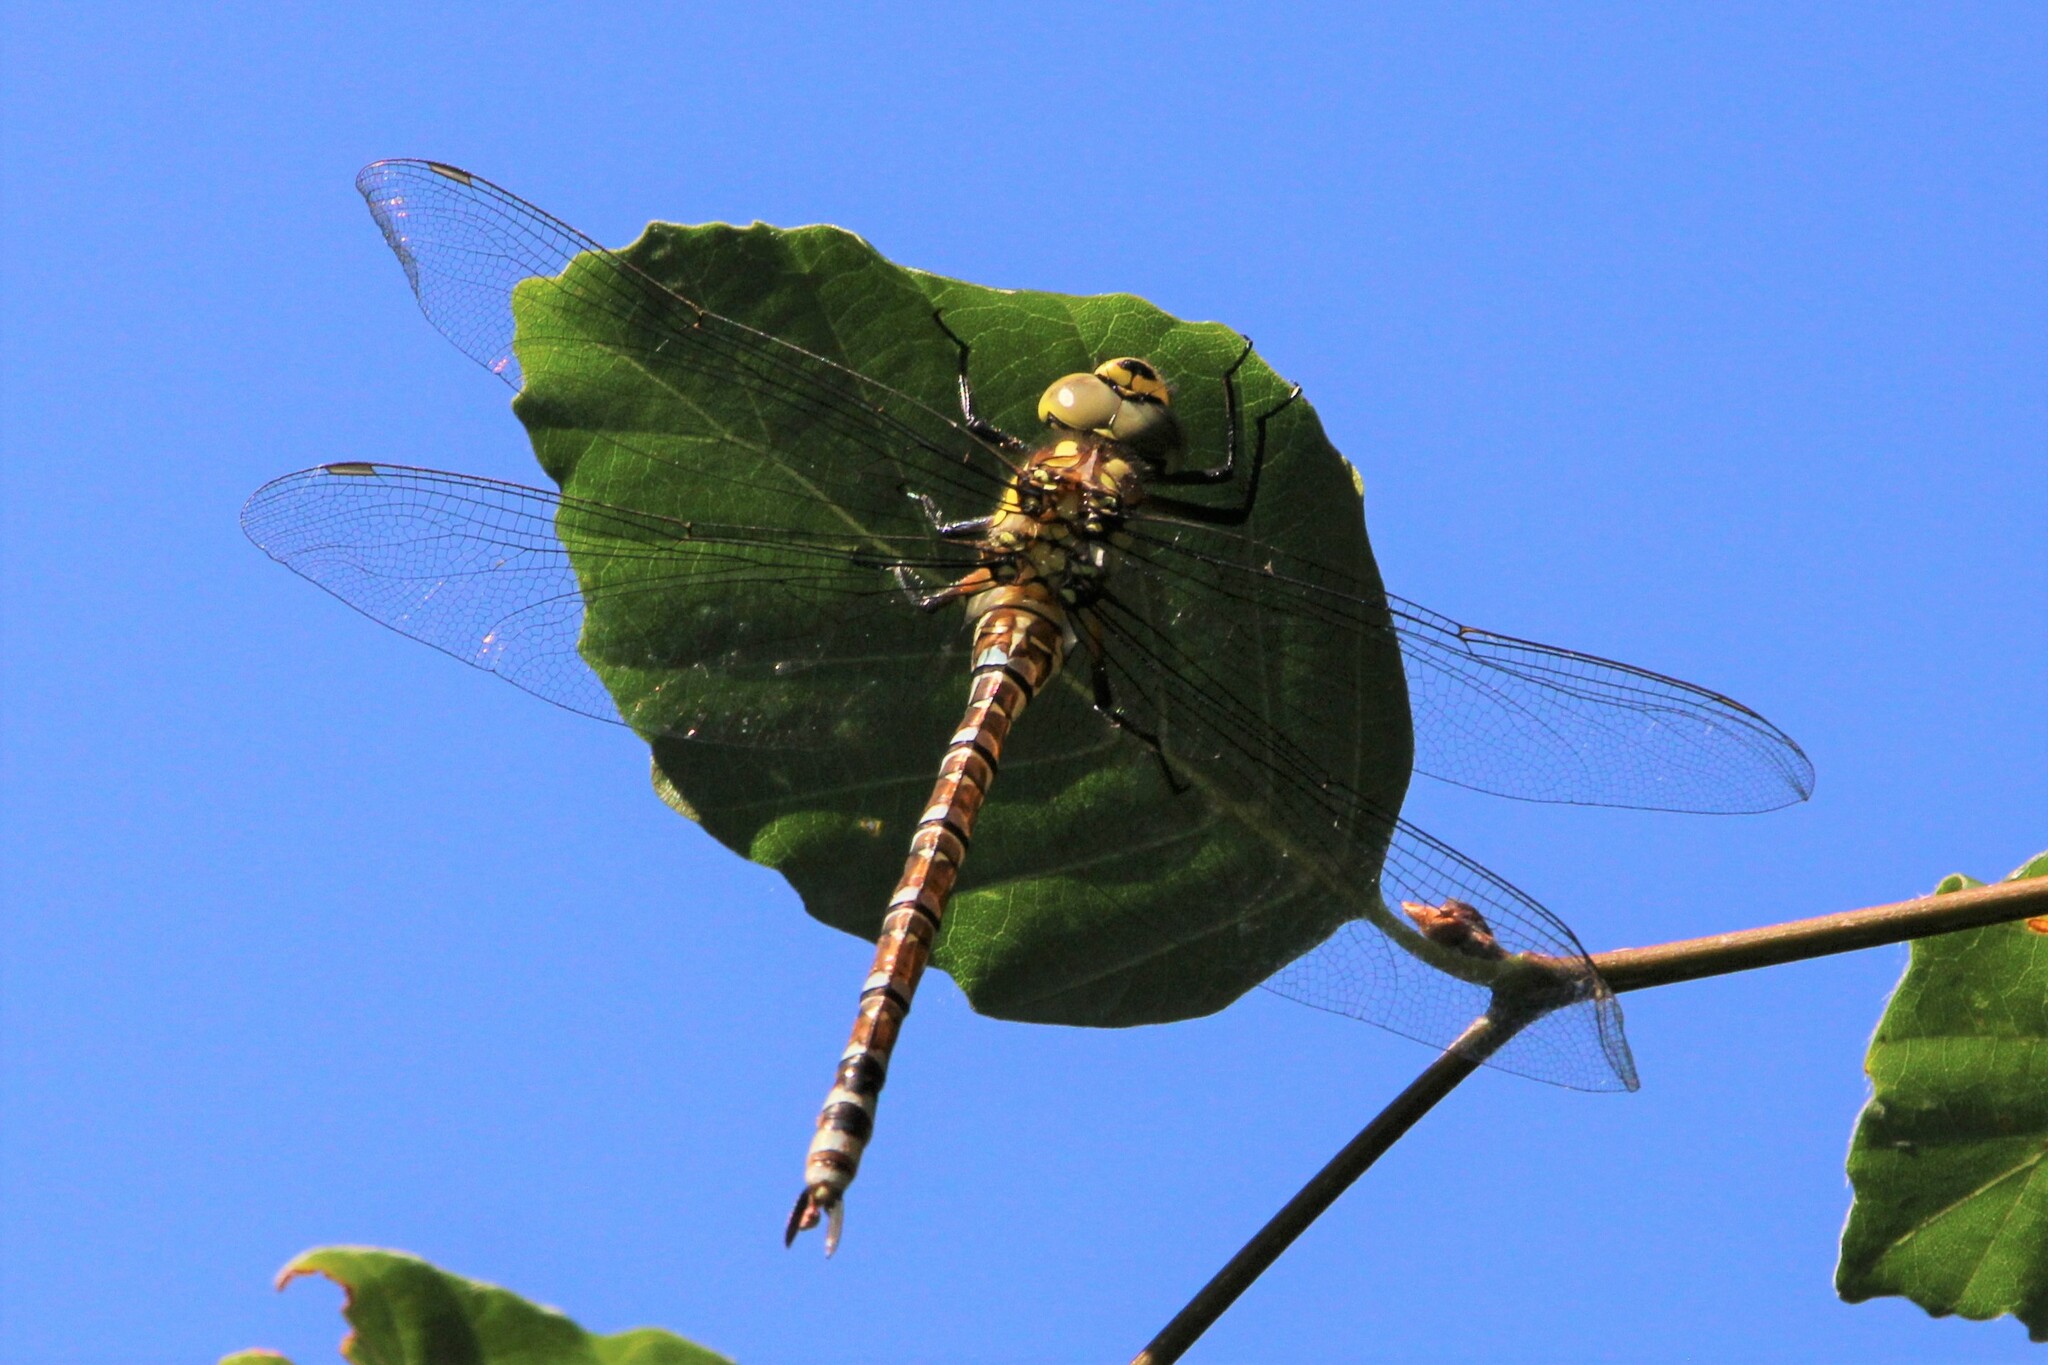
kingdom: Animalia
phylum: Arthropoda
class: Insecta
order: Odonata
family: Aeshnidae
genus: Aeshna
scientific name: Aeshna cyanea
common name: Southern hawker
